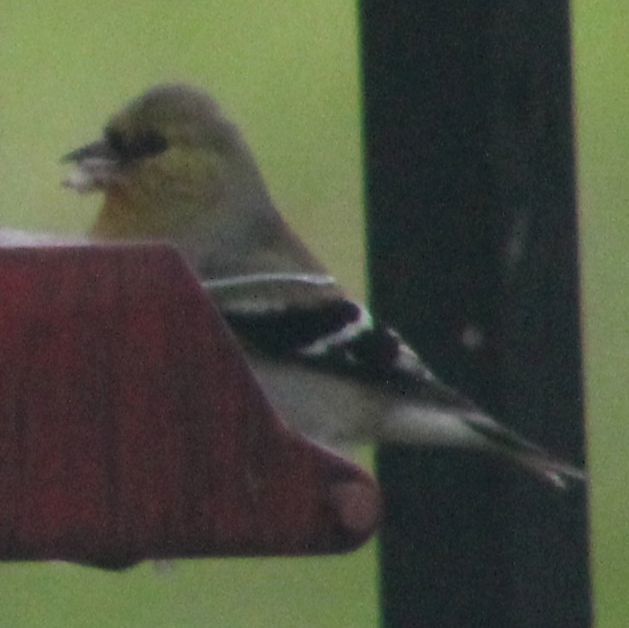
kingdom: Animalia
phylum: Chordata
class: Aves
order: Passeriformes
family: Fringillidae
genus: Spinus
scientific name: Spinus tristis
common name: American goldfinch
